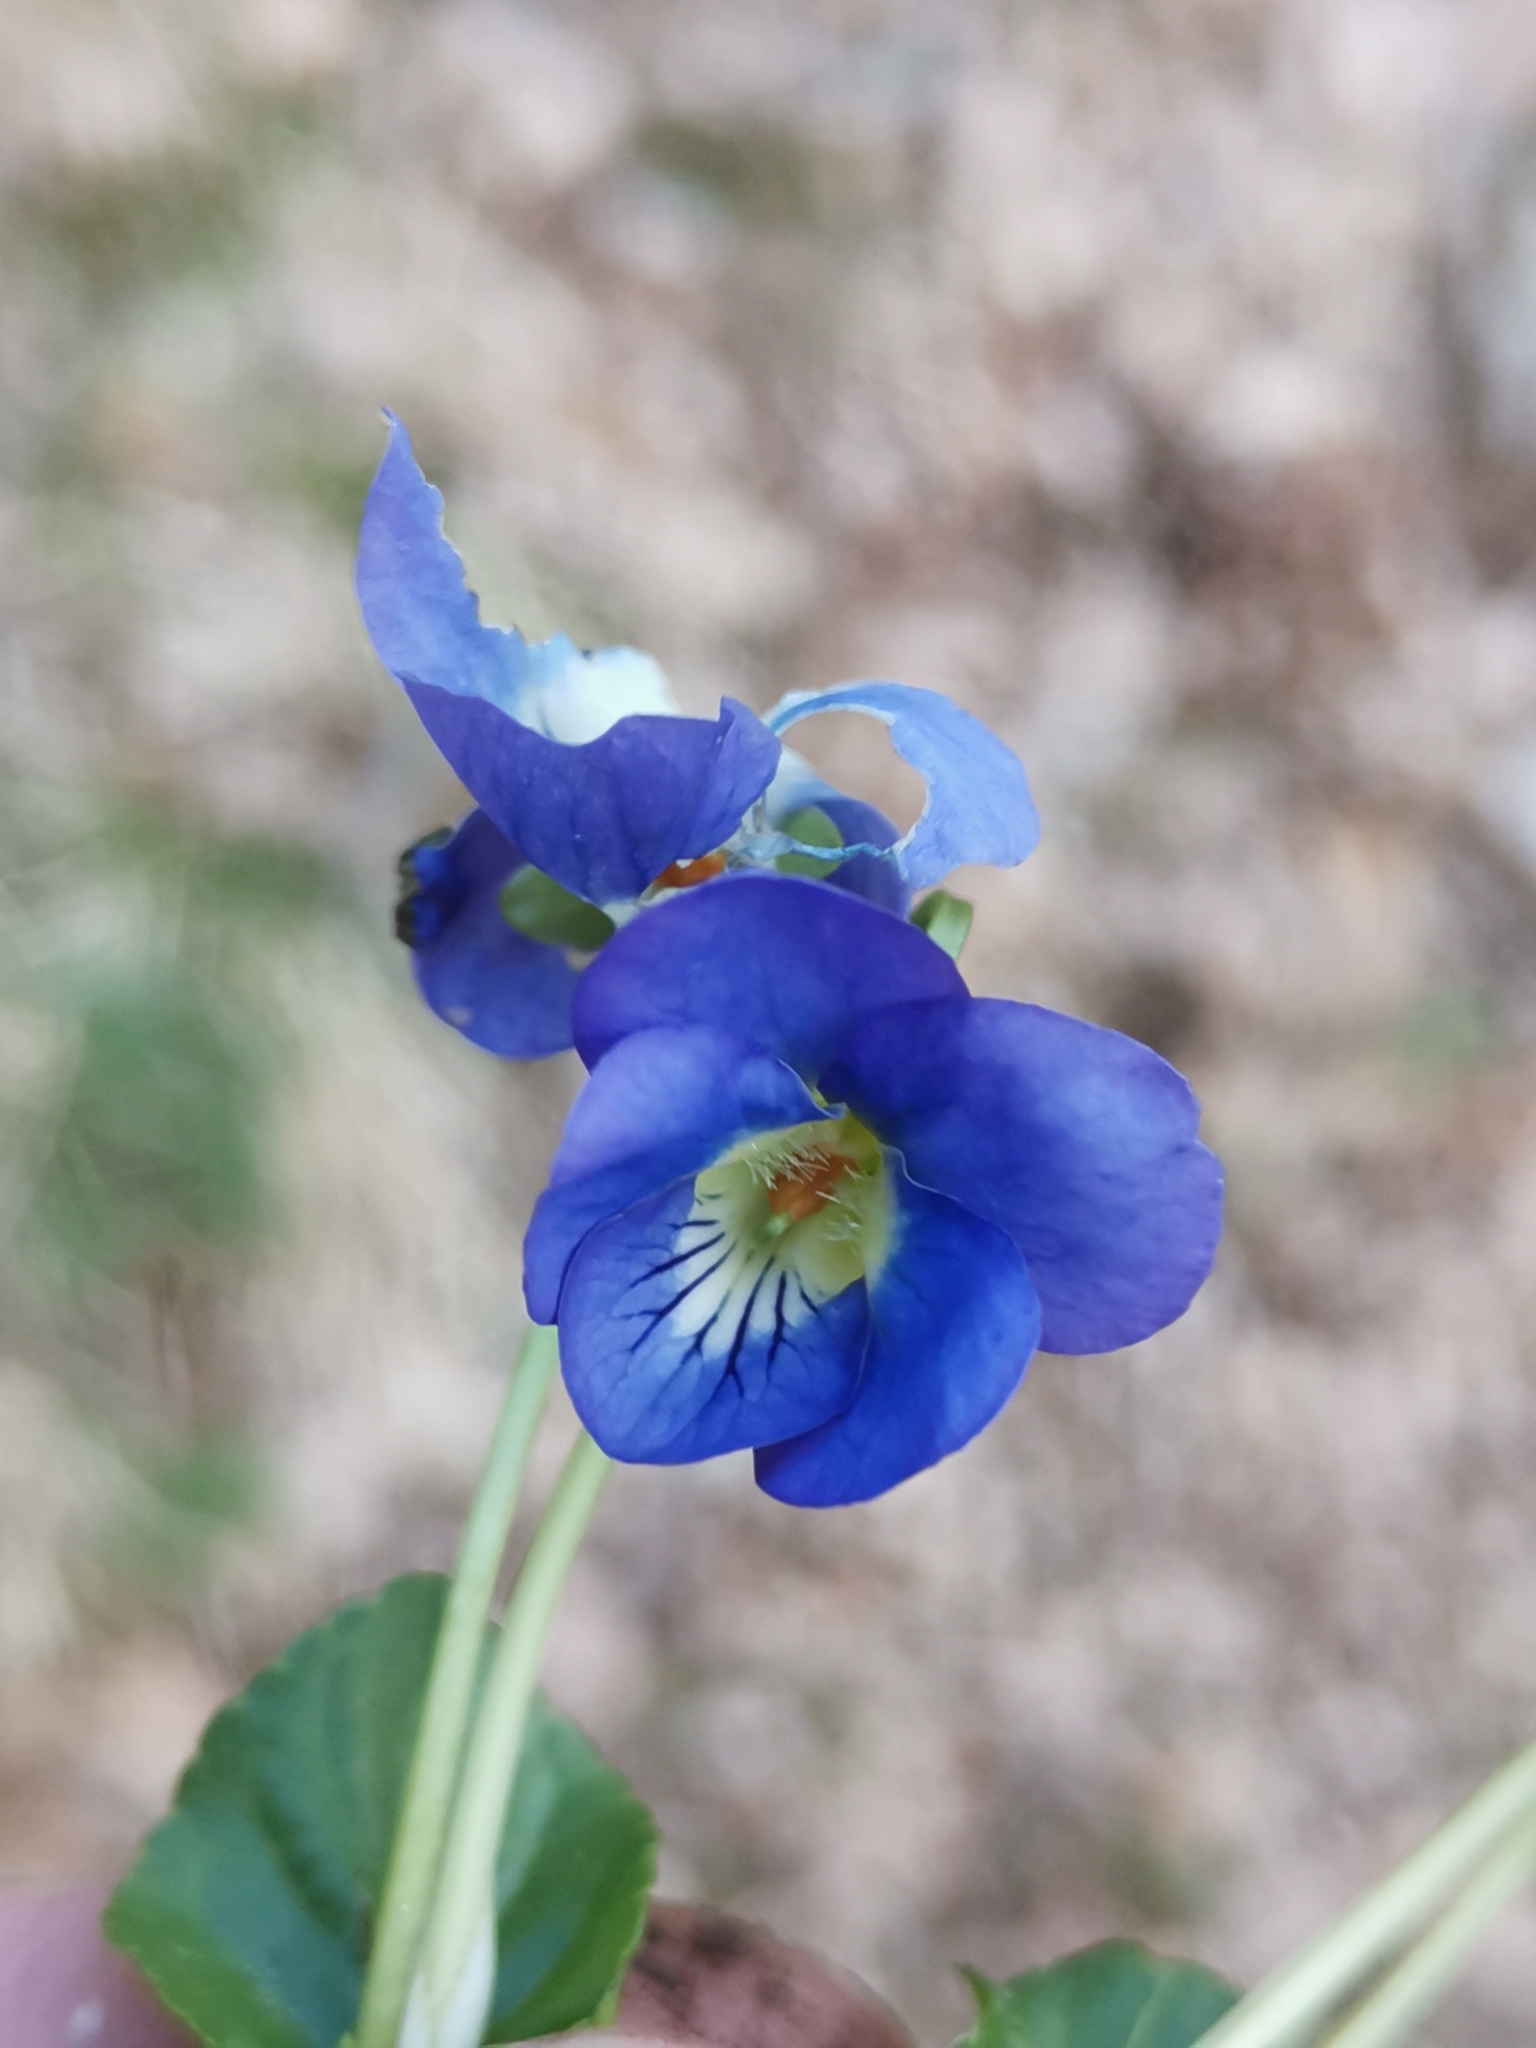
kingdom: Plantae
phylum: Tracheophyta
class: Magnoliopsida
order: Malpighiales
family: Violaceae
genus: Viola
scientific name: Viola suavis
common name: Russian violet
